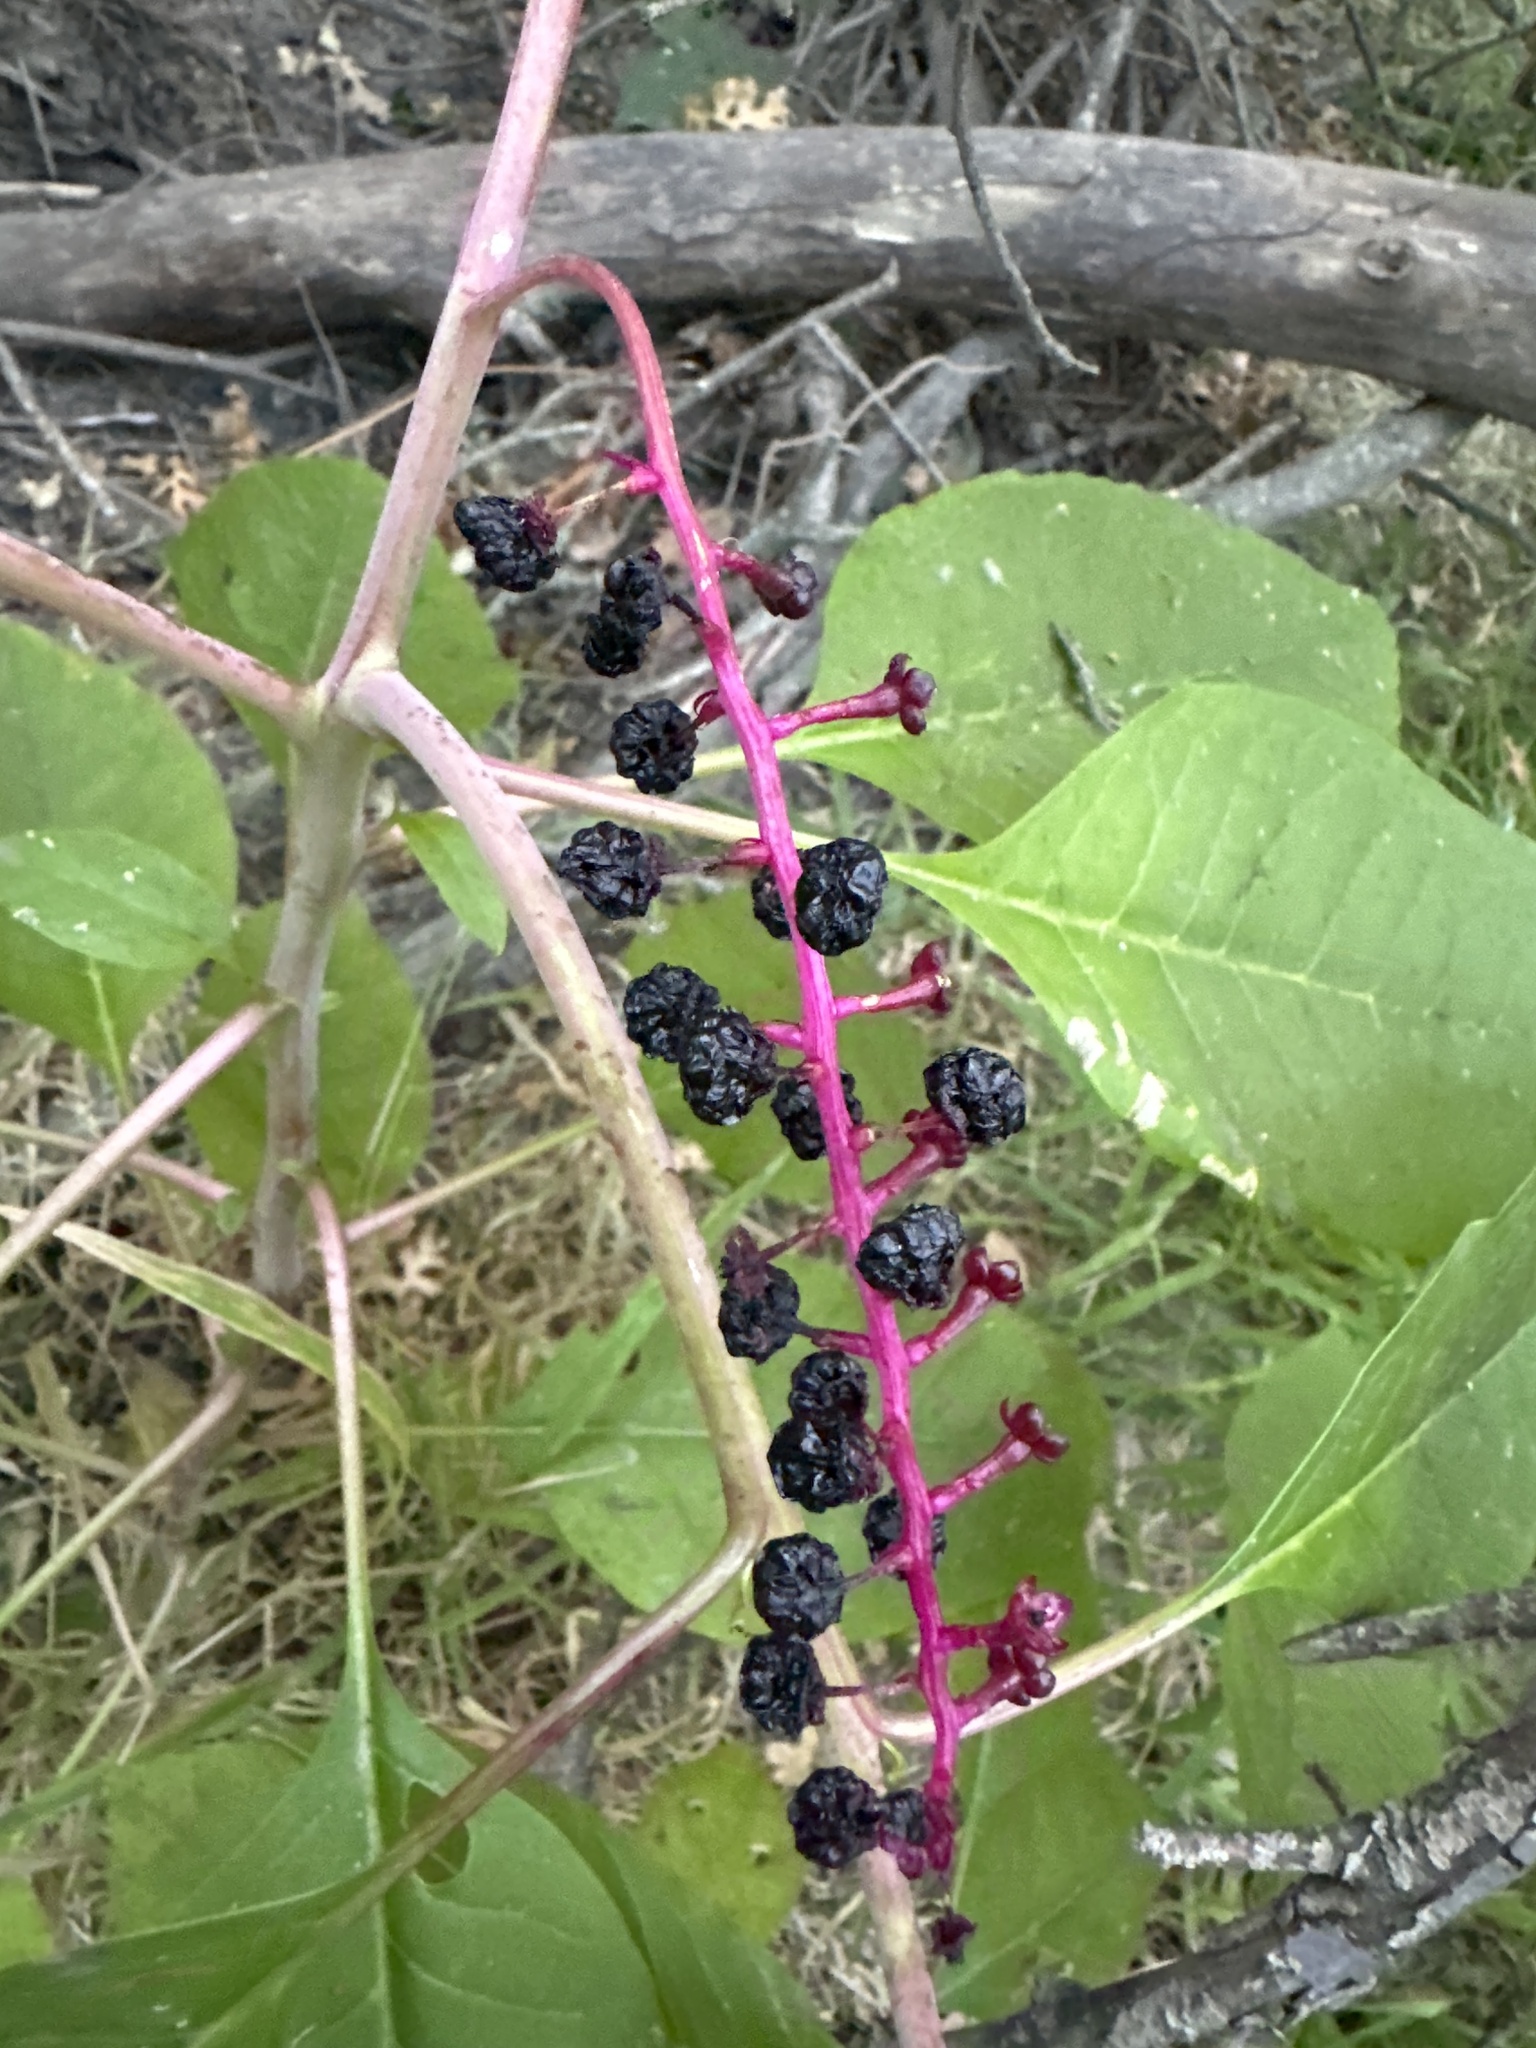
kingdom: Plantae
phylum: Tracheophyta
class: Magnoliopsida
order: Caryophyllales
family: Phytolaccaceae
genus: Phytolacca
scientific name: Phytolacca americana
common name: American pokeweed
